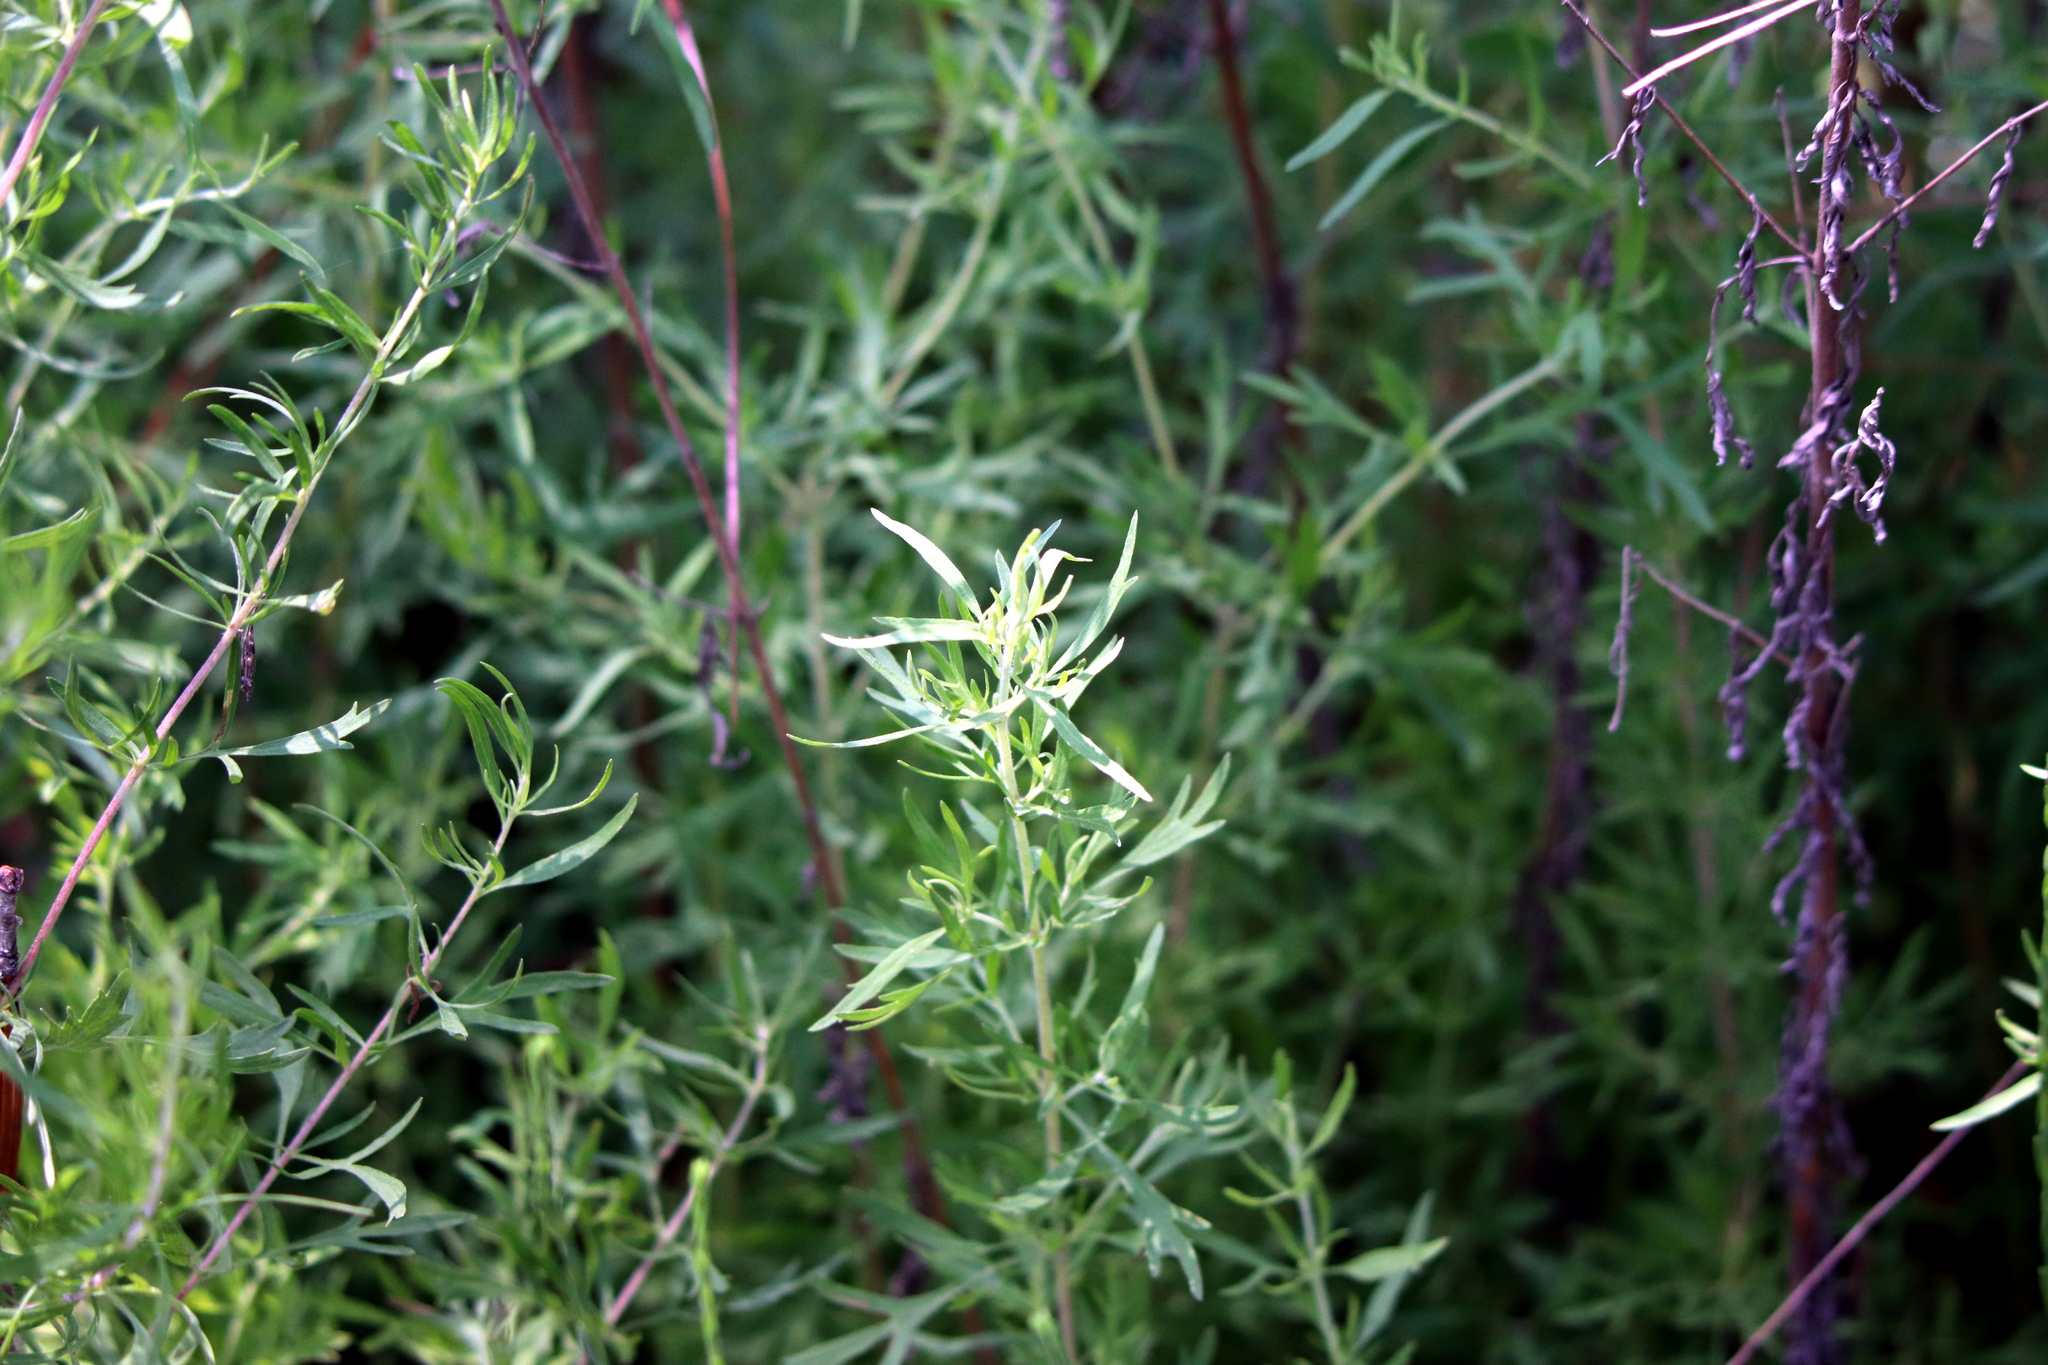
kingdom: Plantae
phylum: Tracheophyta
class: Magnoliopsida
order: Asterales
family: Asteraceae
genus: Eupatorium
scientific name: Eupatorium compositifolium
